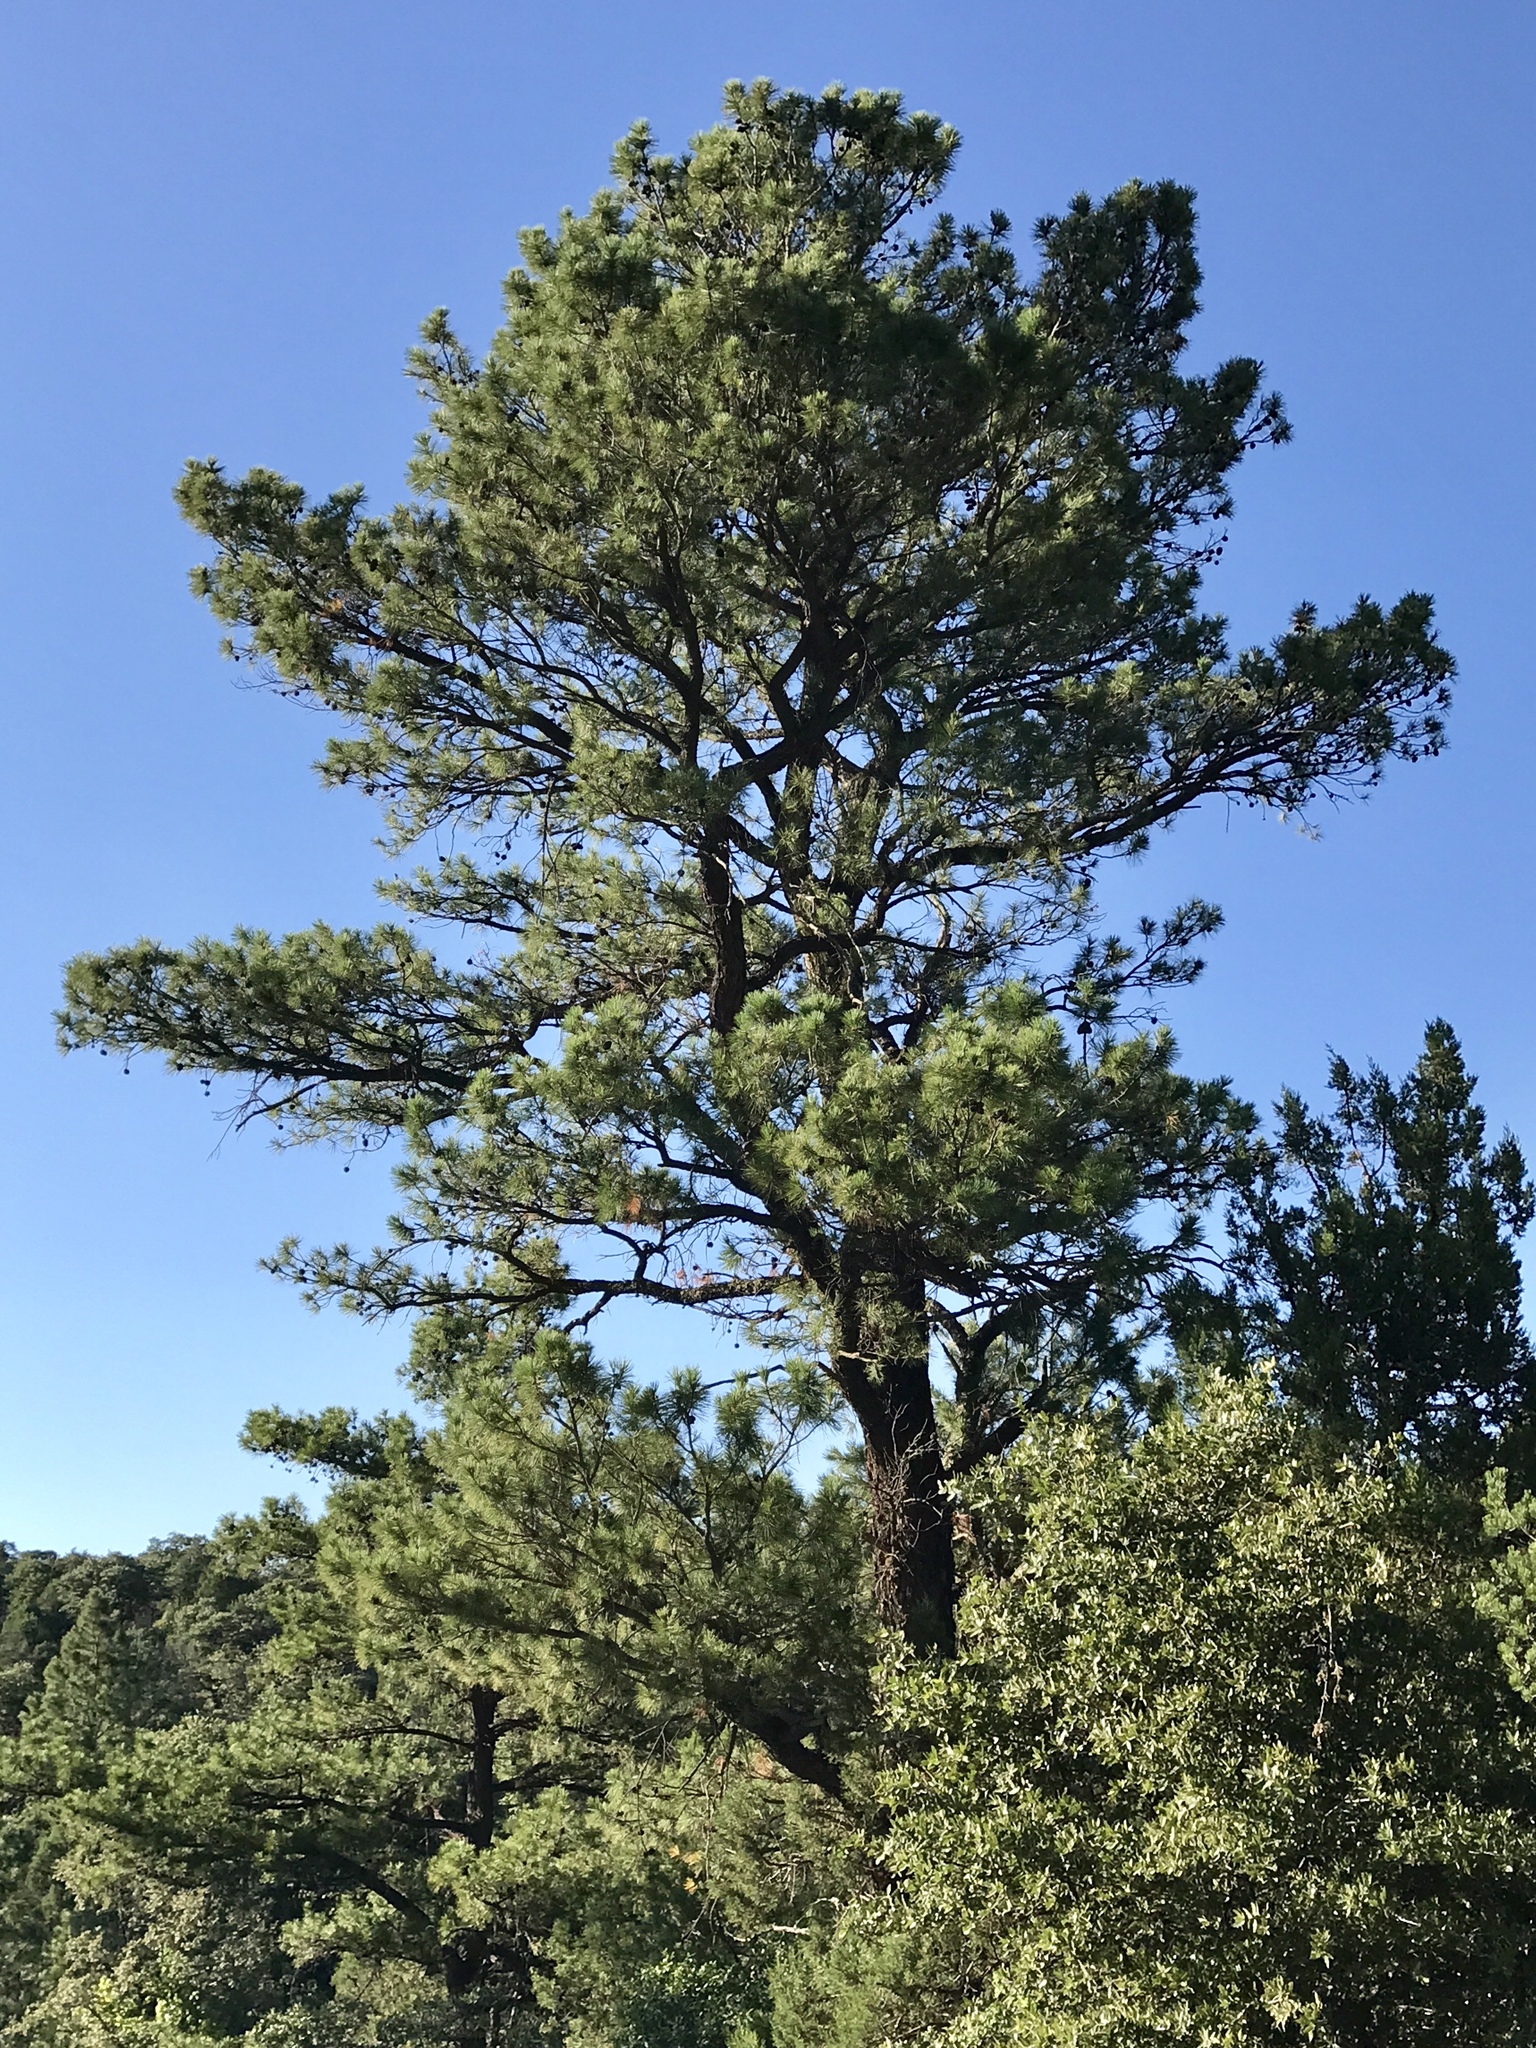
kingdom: Plantae
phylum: Tracheophyta
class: Pinopsida
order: Pinales
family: Pinaceae
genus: Pinus
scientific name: Pinus leiophylla
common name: Chihuahua pine
